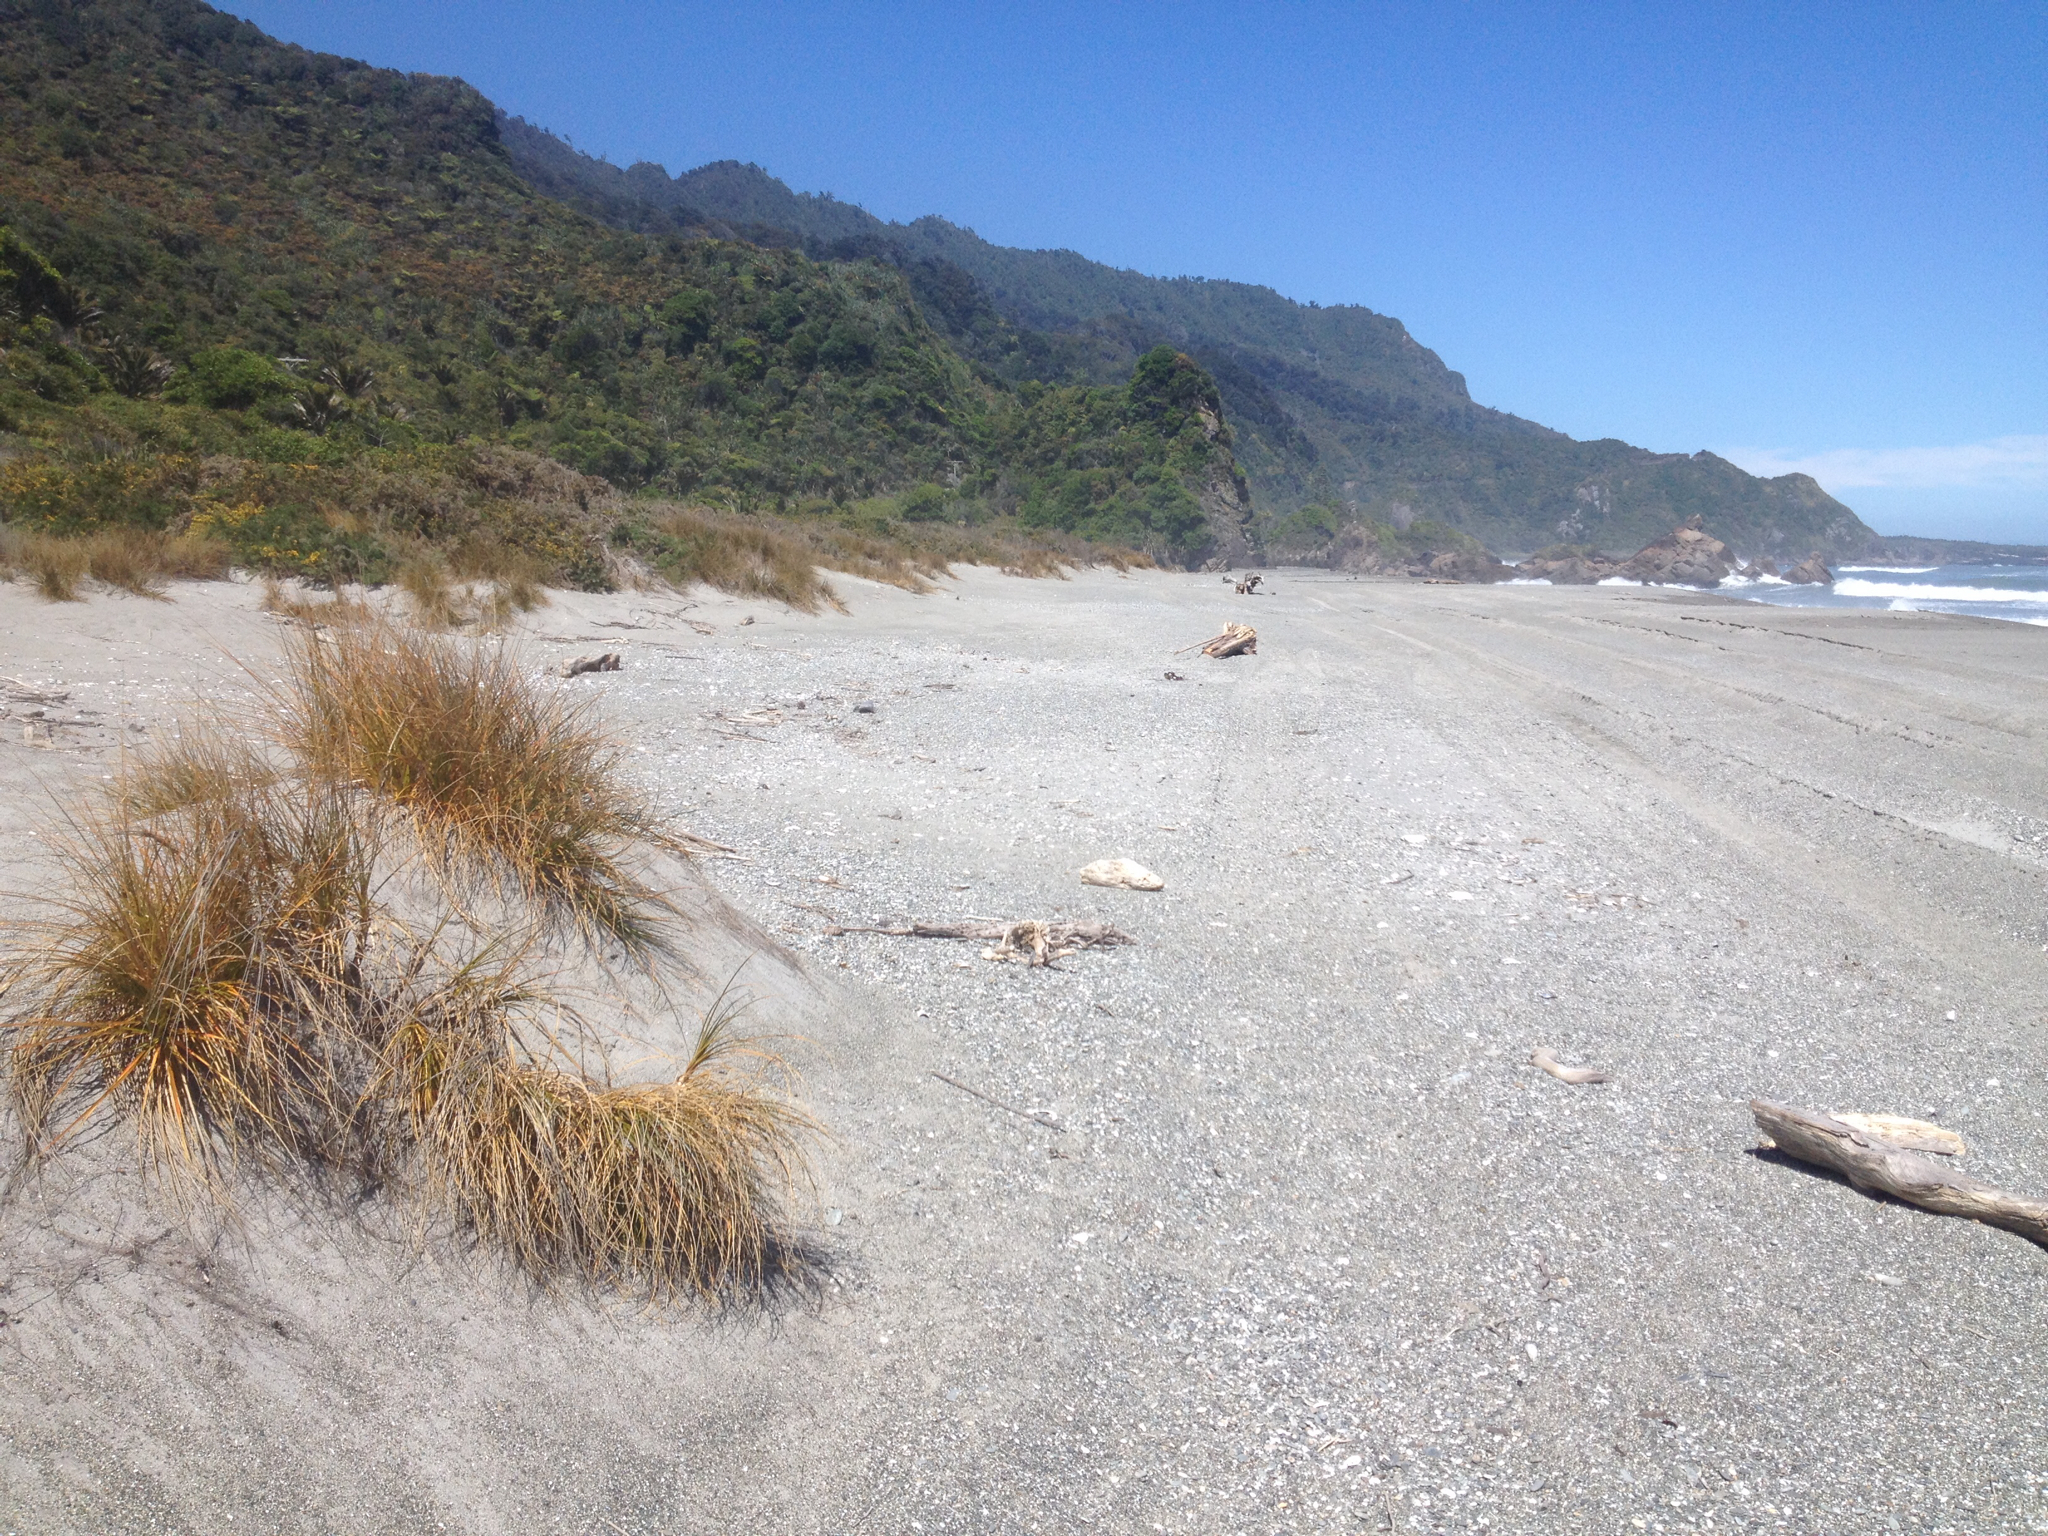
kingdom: Plantae
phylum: Tracheophyta
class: Liliopsida
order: Poales
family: Cyperaceae
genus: Ficinia
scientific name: Ficinia spiralis
